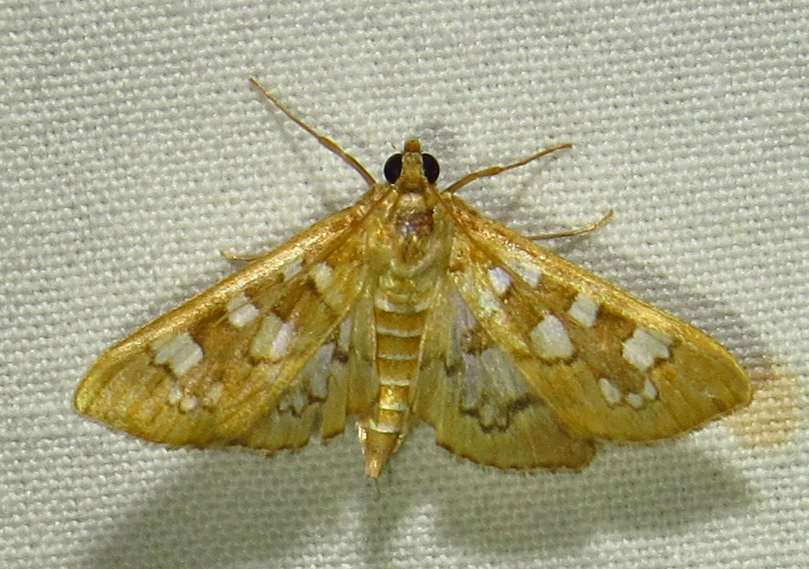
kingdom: Animalia
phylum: Arthropoda
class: Insecta
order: Lepidoptera
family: Crambidae
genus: Samea
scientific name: Samea baccatalis
